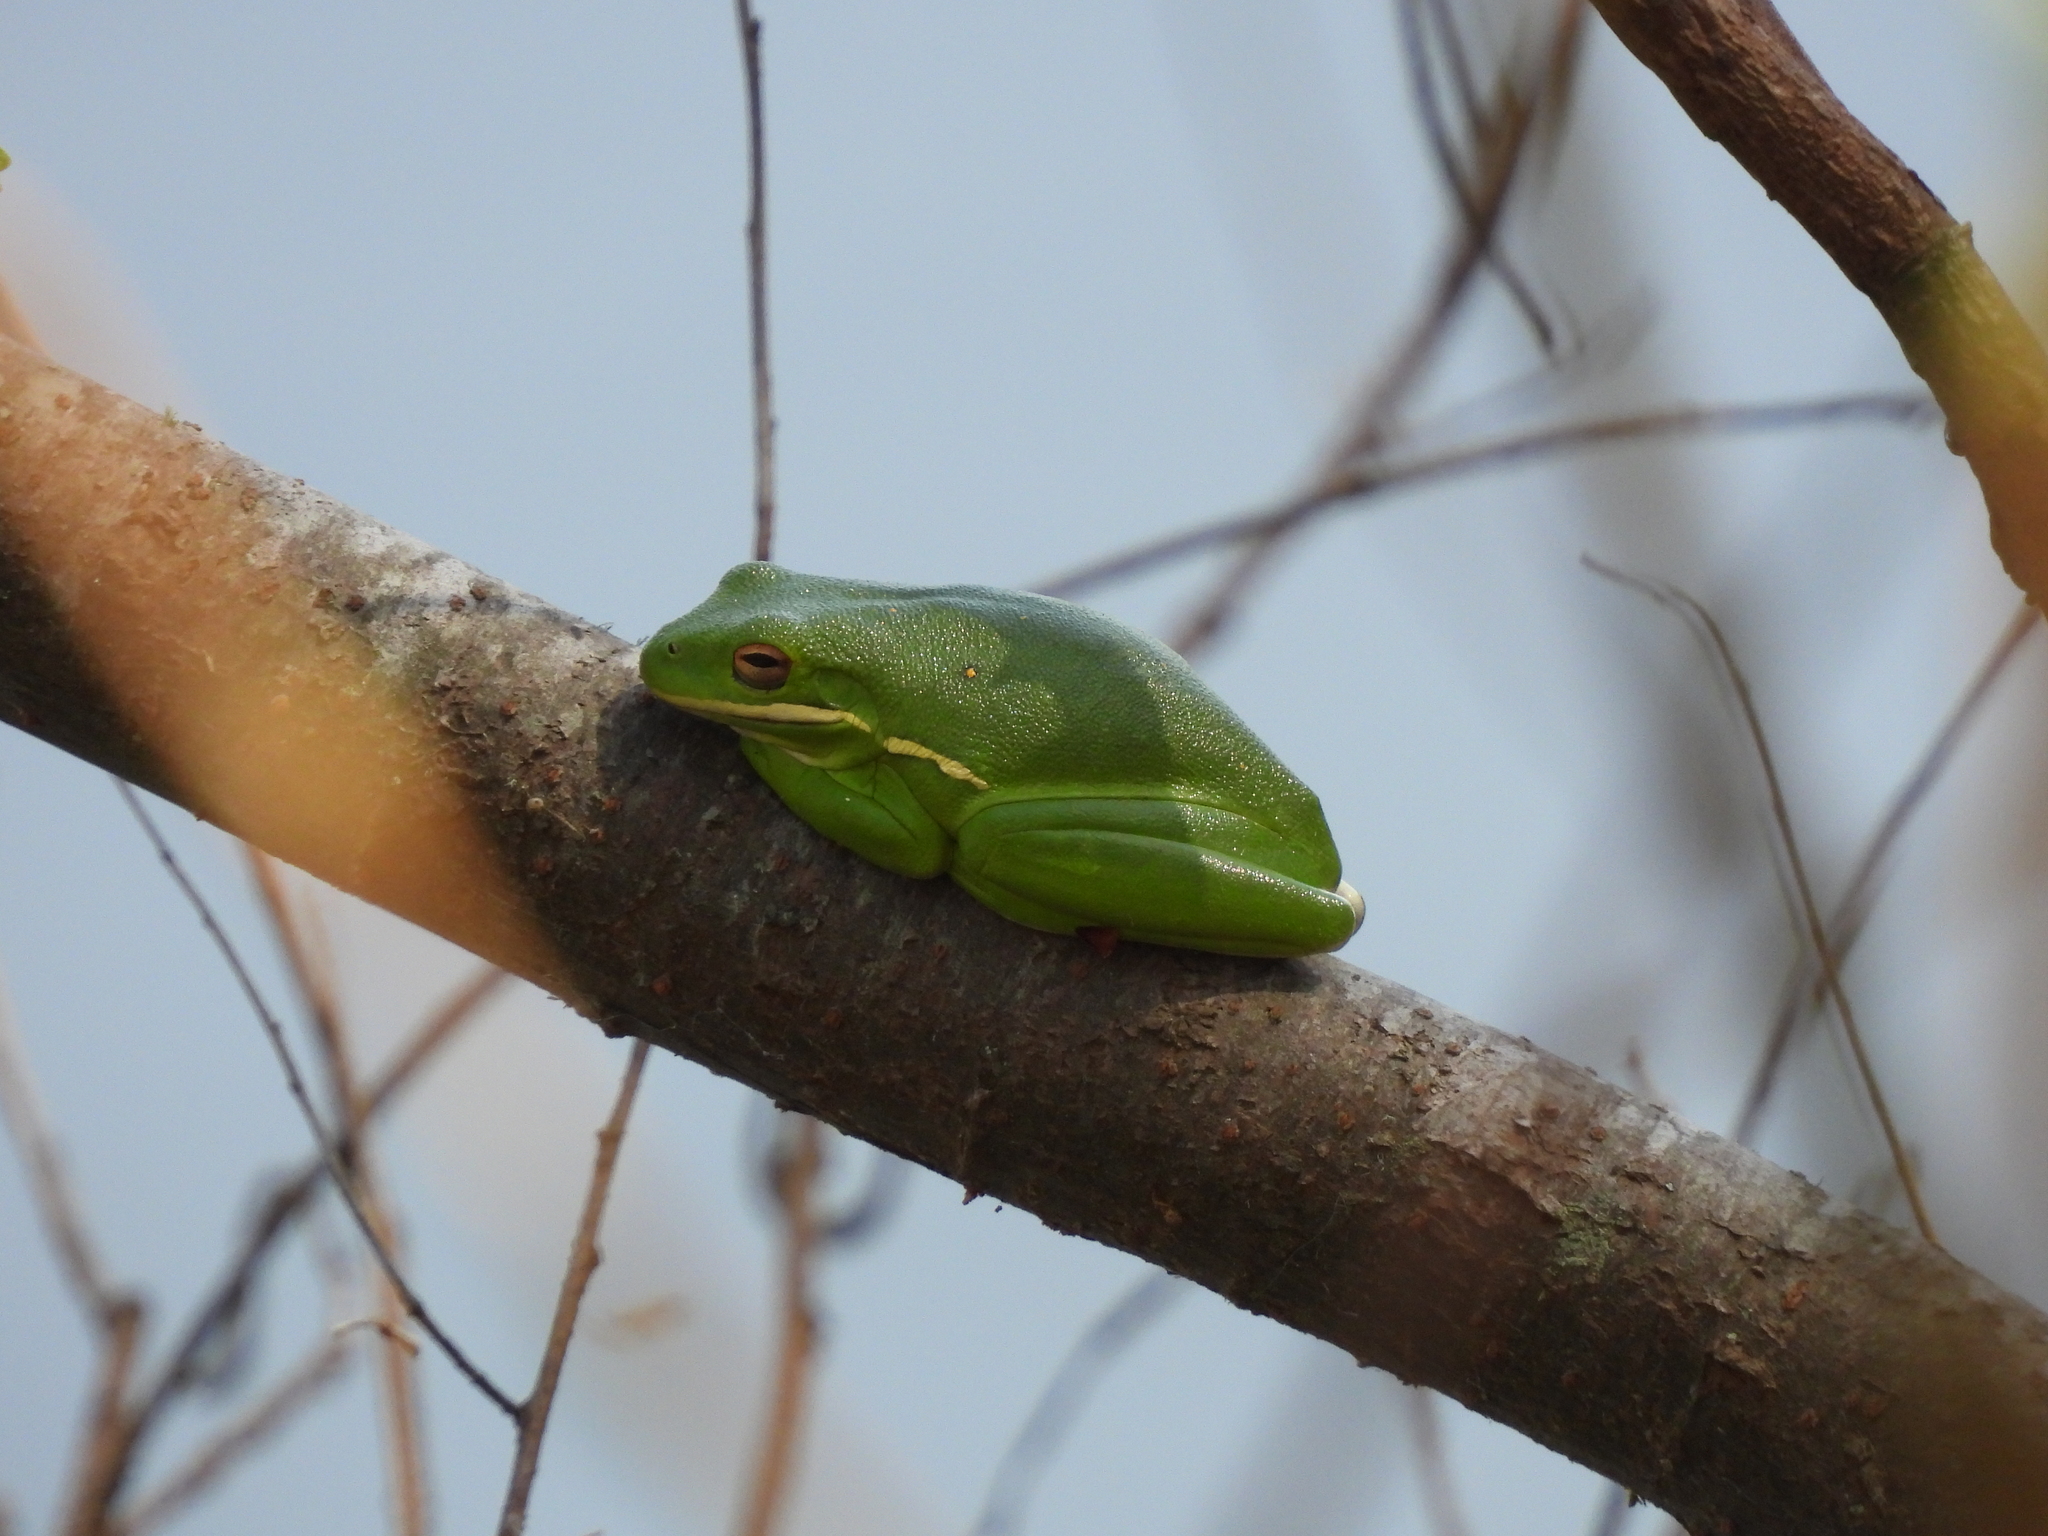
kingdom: Animalia
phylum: Chordata
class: Amphibia
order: Anura
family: Hylidae
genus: Dryophytes
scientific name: Dryophytes cinereus
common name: Green treefrog
